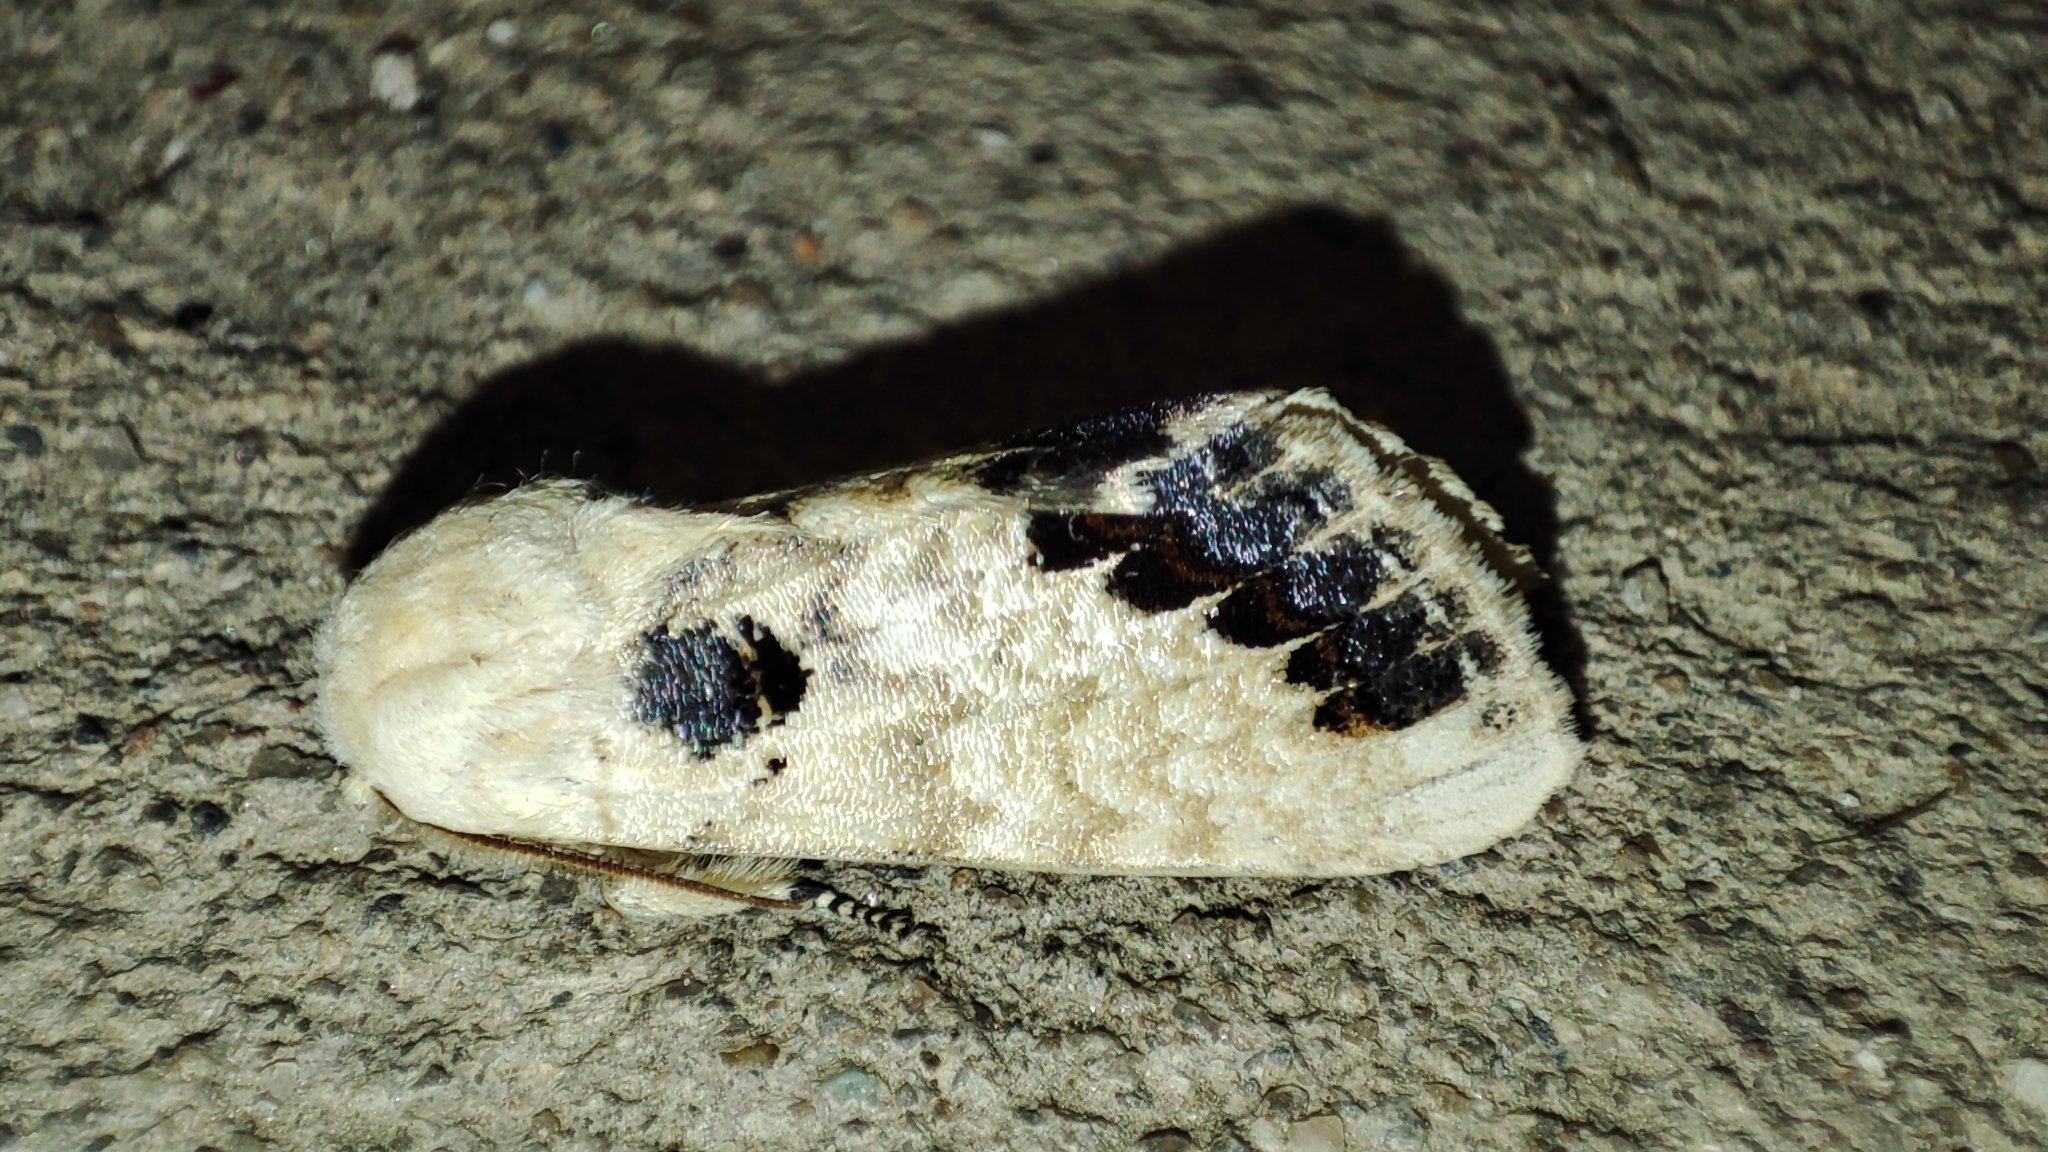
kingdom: Animalia
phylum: Arthropoda
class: Insecta
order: Lepidoptera
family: Notodontidae
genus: Phalera
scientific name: Phalera flavescens
